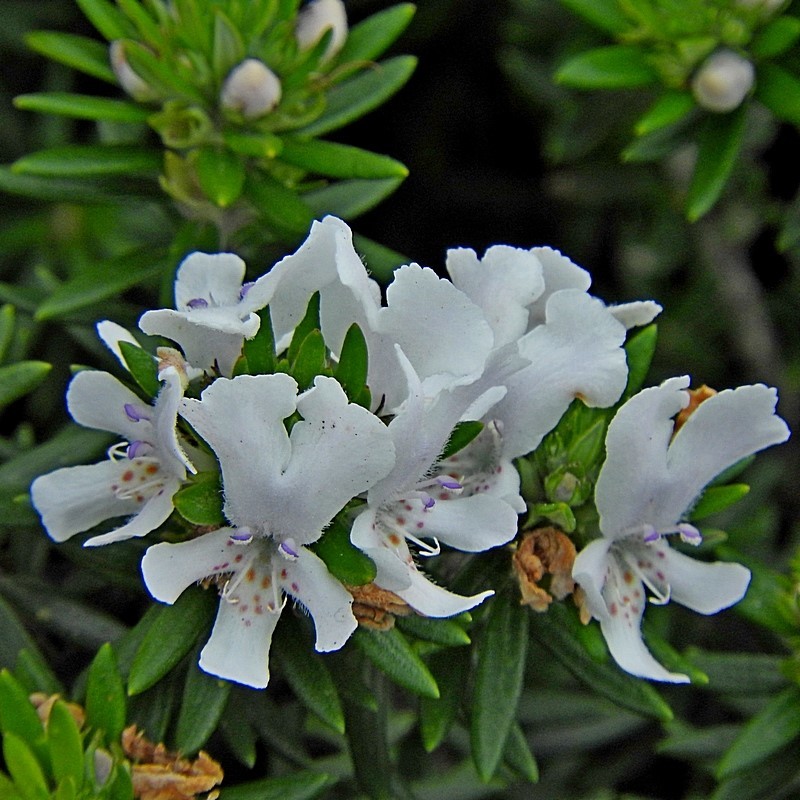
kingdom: Plantae
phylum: Tracheophyta
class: Magnoliopsida
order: Lamiales
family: Lamiaceae
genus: Westringia
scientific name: Westringia fruticosa
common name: Coastal-rosemary
